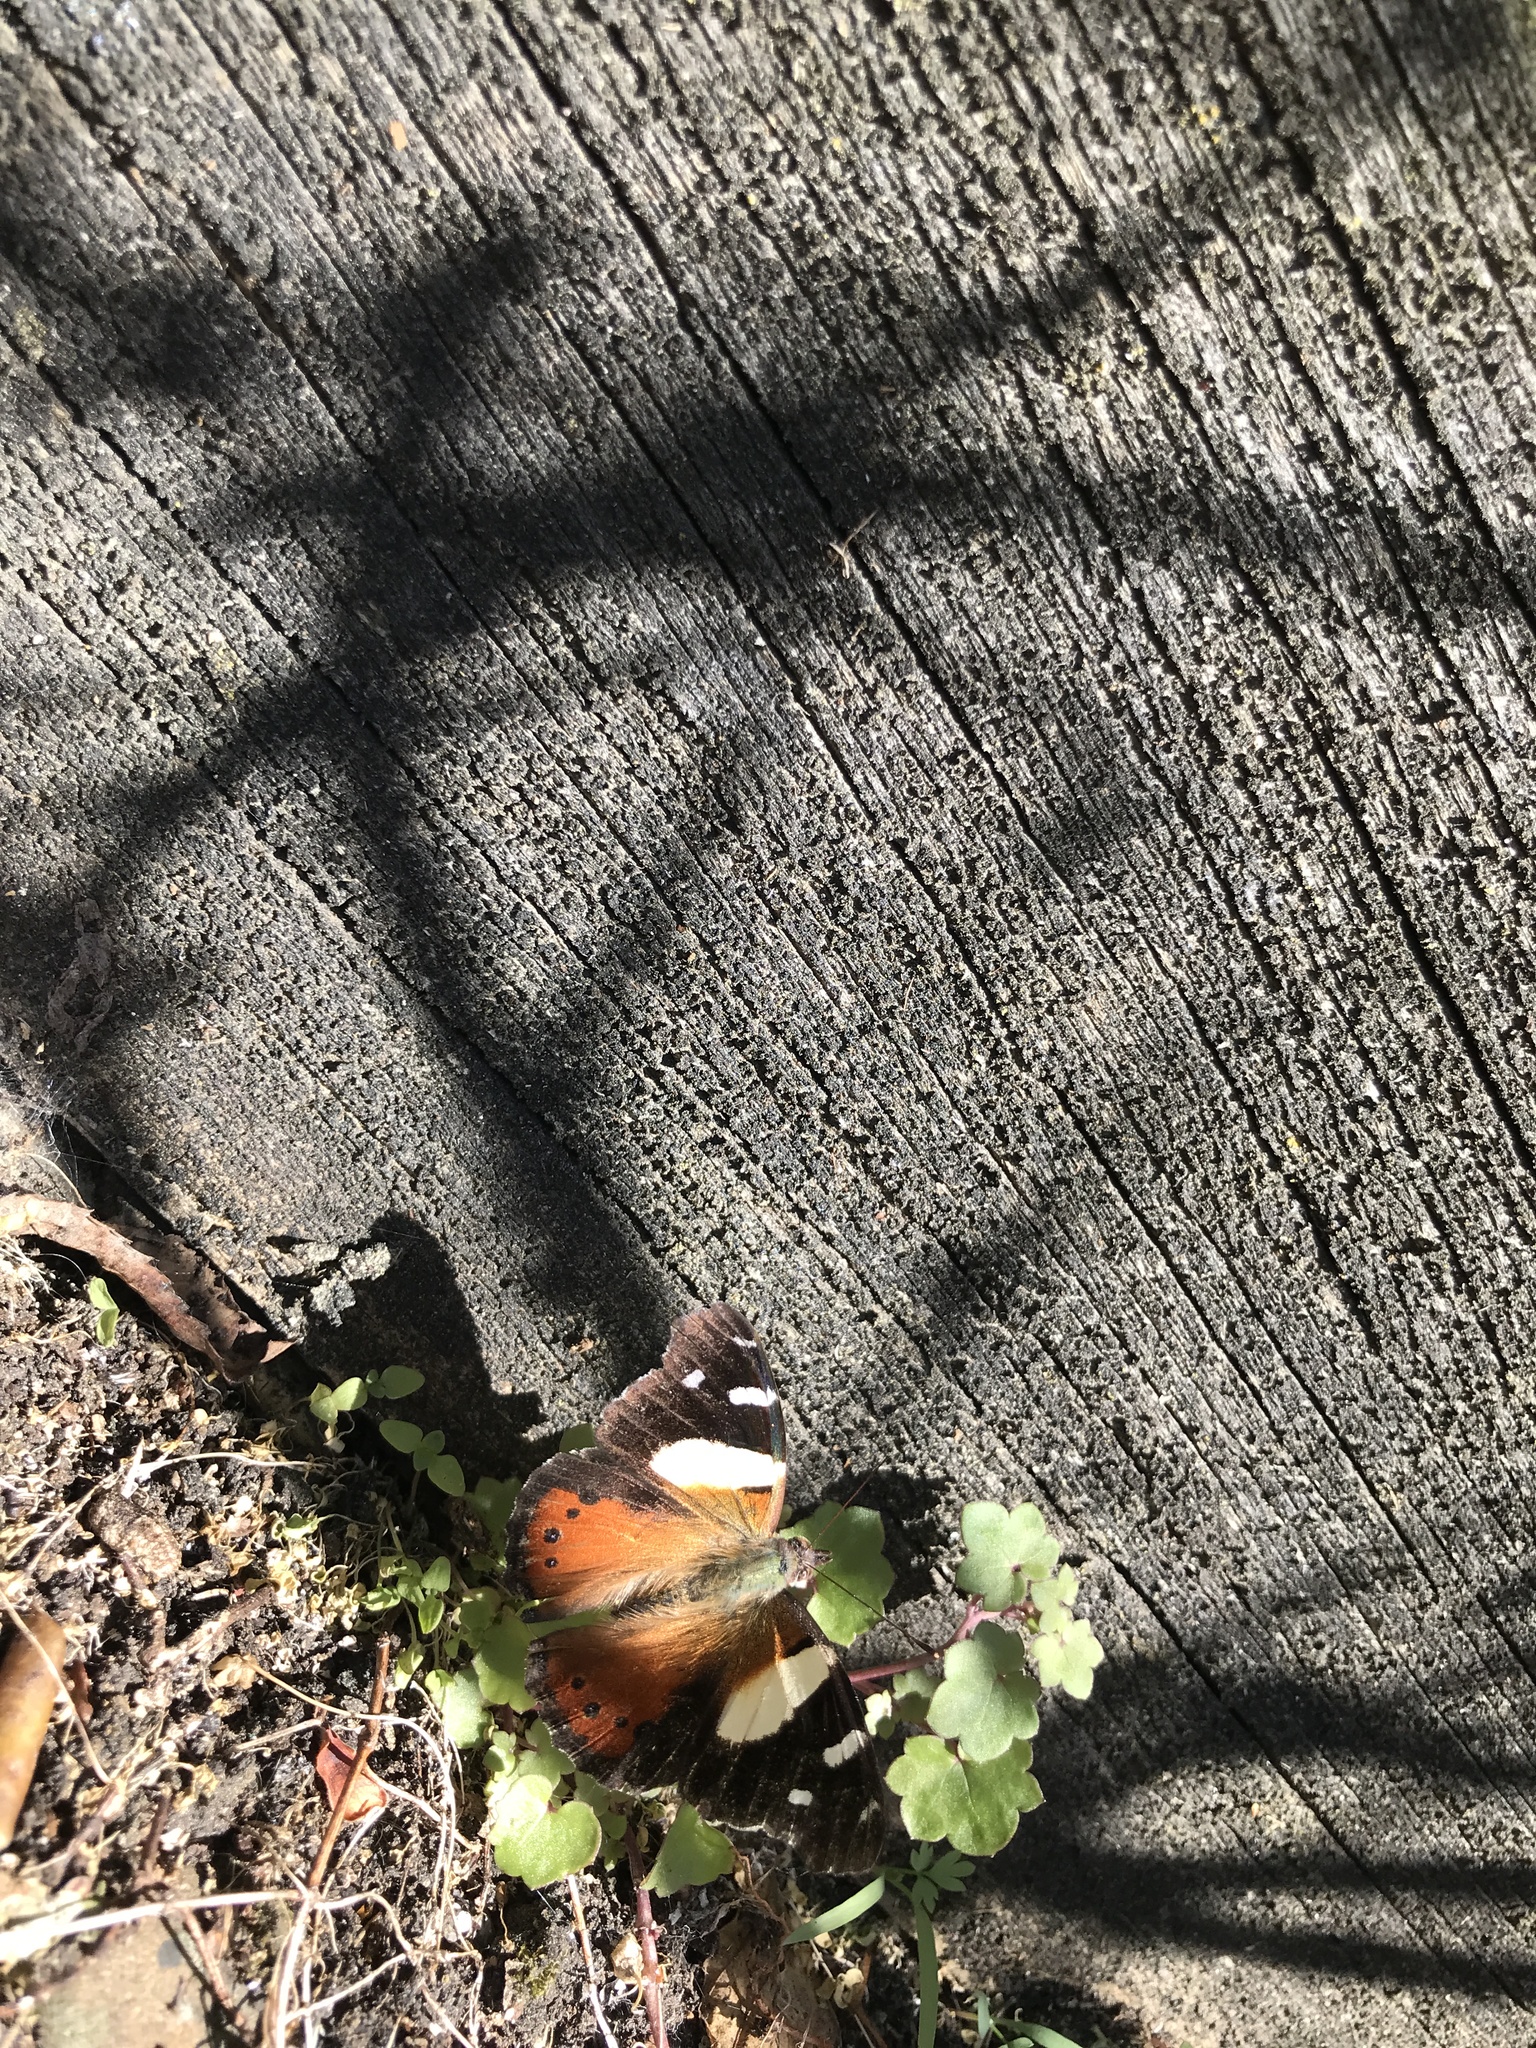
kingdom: Animalia
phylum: Arthropoda
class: Insecta
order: Lepidoptera
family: Nymphalidae
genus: Vanessa
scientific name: Vanessa itea
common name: Yellow admiral
